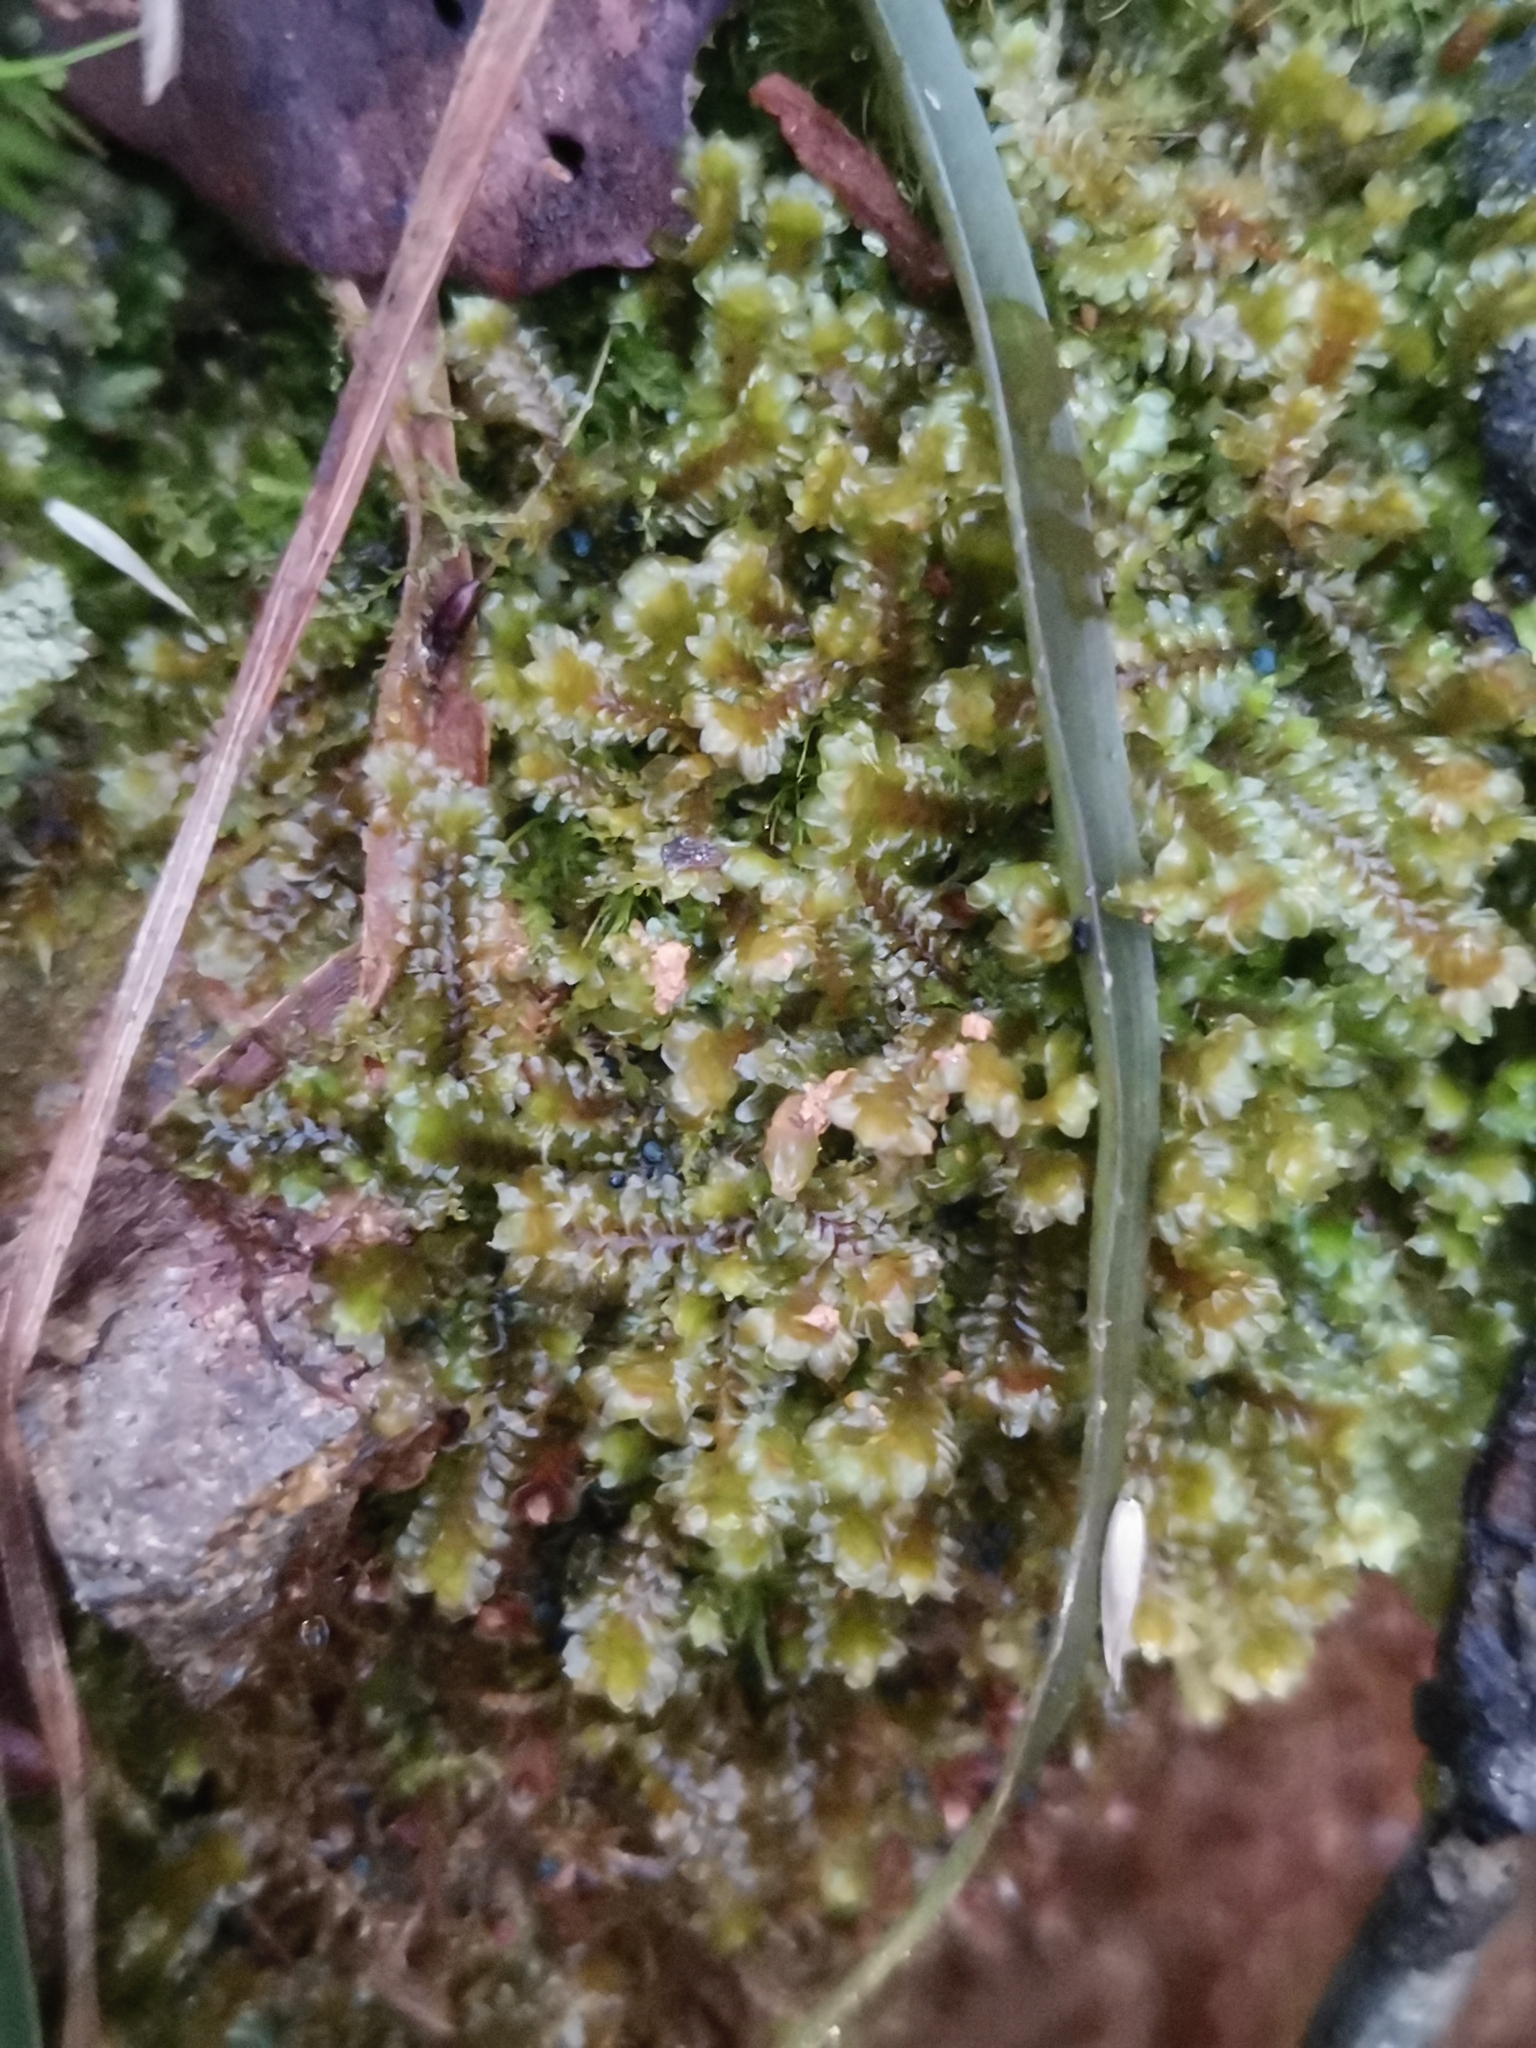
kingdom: Plantae
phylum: Marchantiophyta
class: Jungermanniopsida
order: Jungermanniales
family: Scapaniaceae
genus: Diplophyllum
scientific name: Diplophyllum albicans
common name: White earwort
